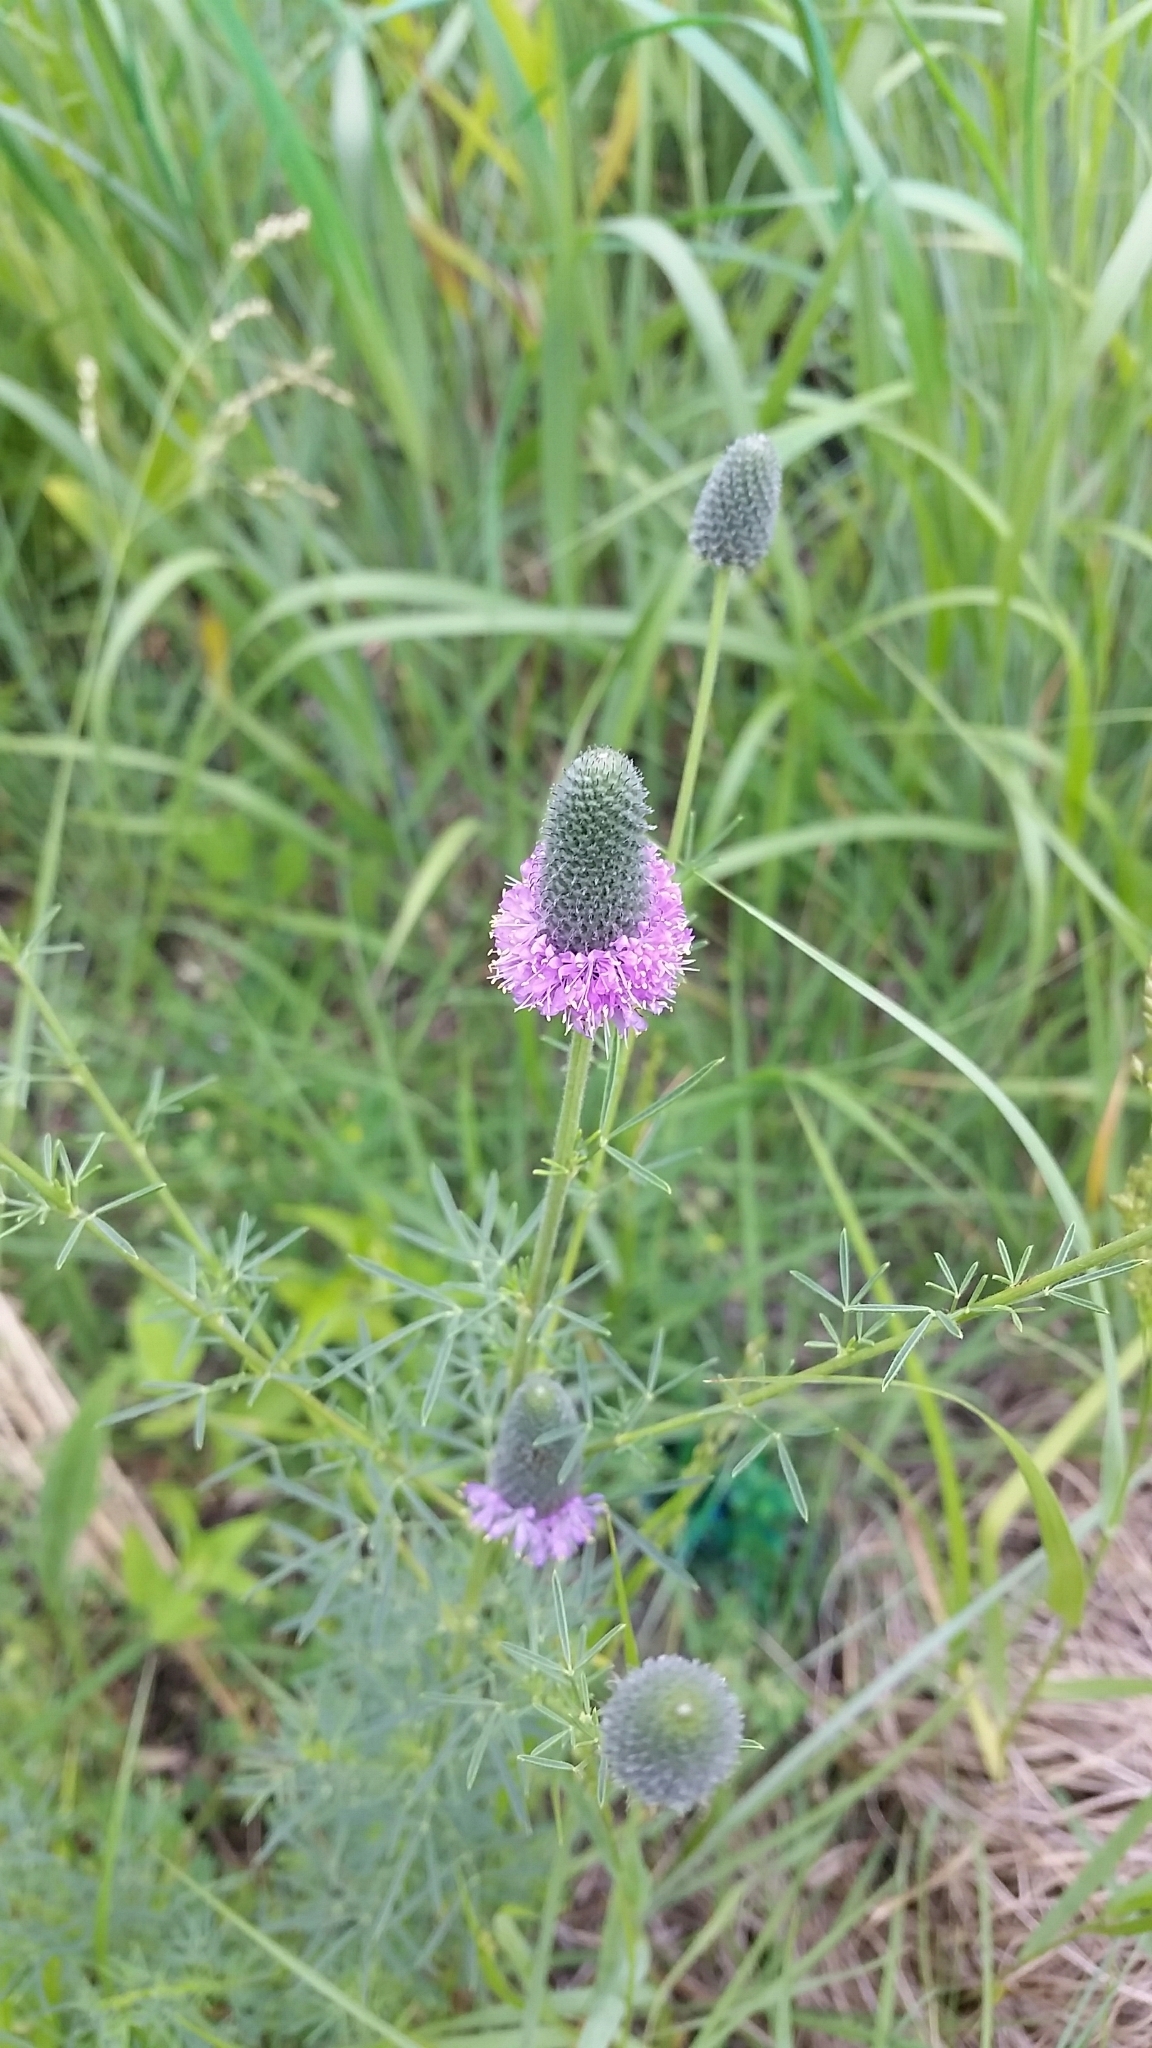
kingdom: Plantae
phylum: Tracheophyta
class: Magnoliopsida
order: Fabales
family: Fabaceae
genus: Dalea
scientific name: Dalea purpurea
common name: Purple prairie-clover
